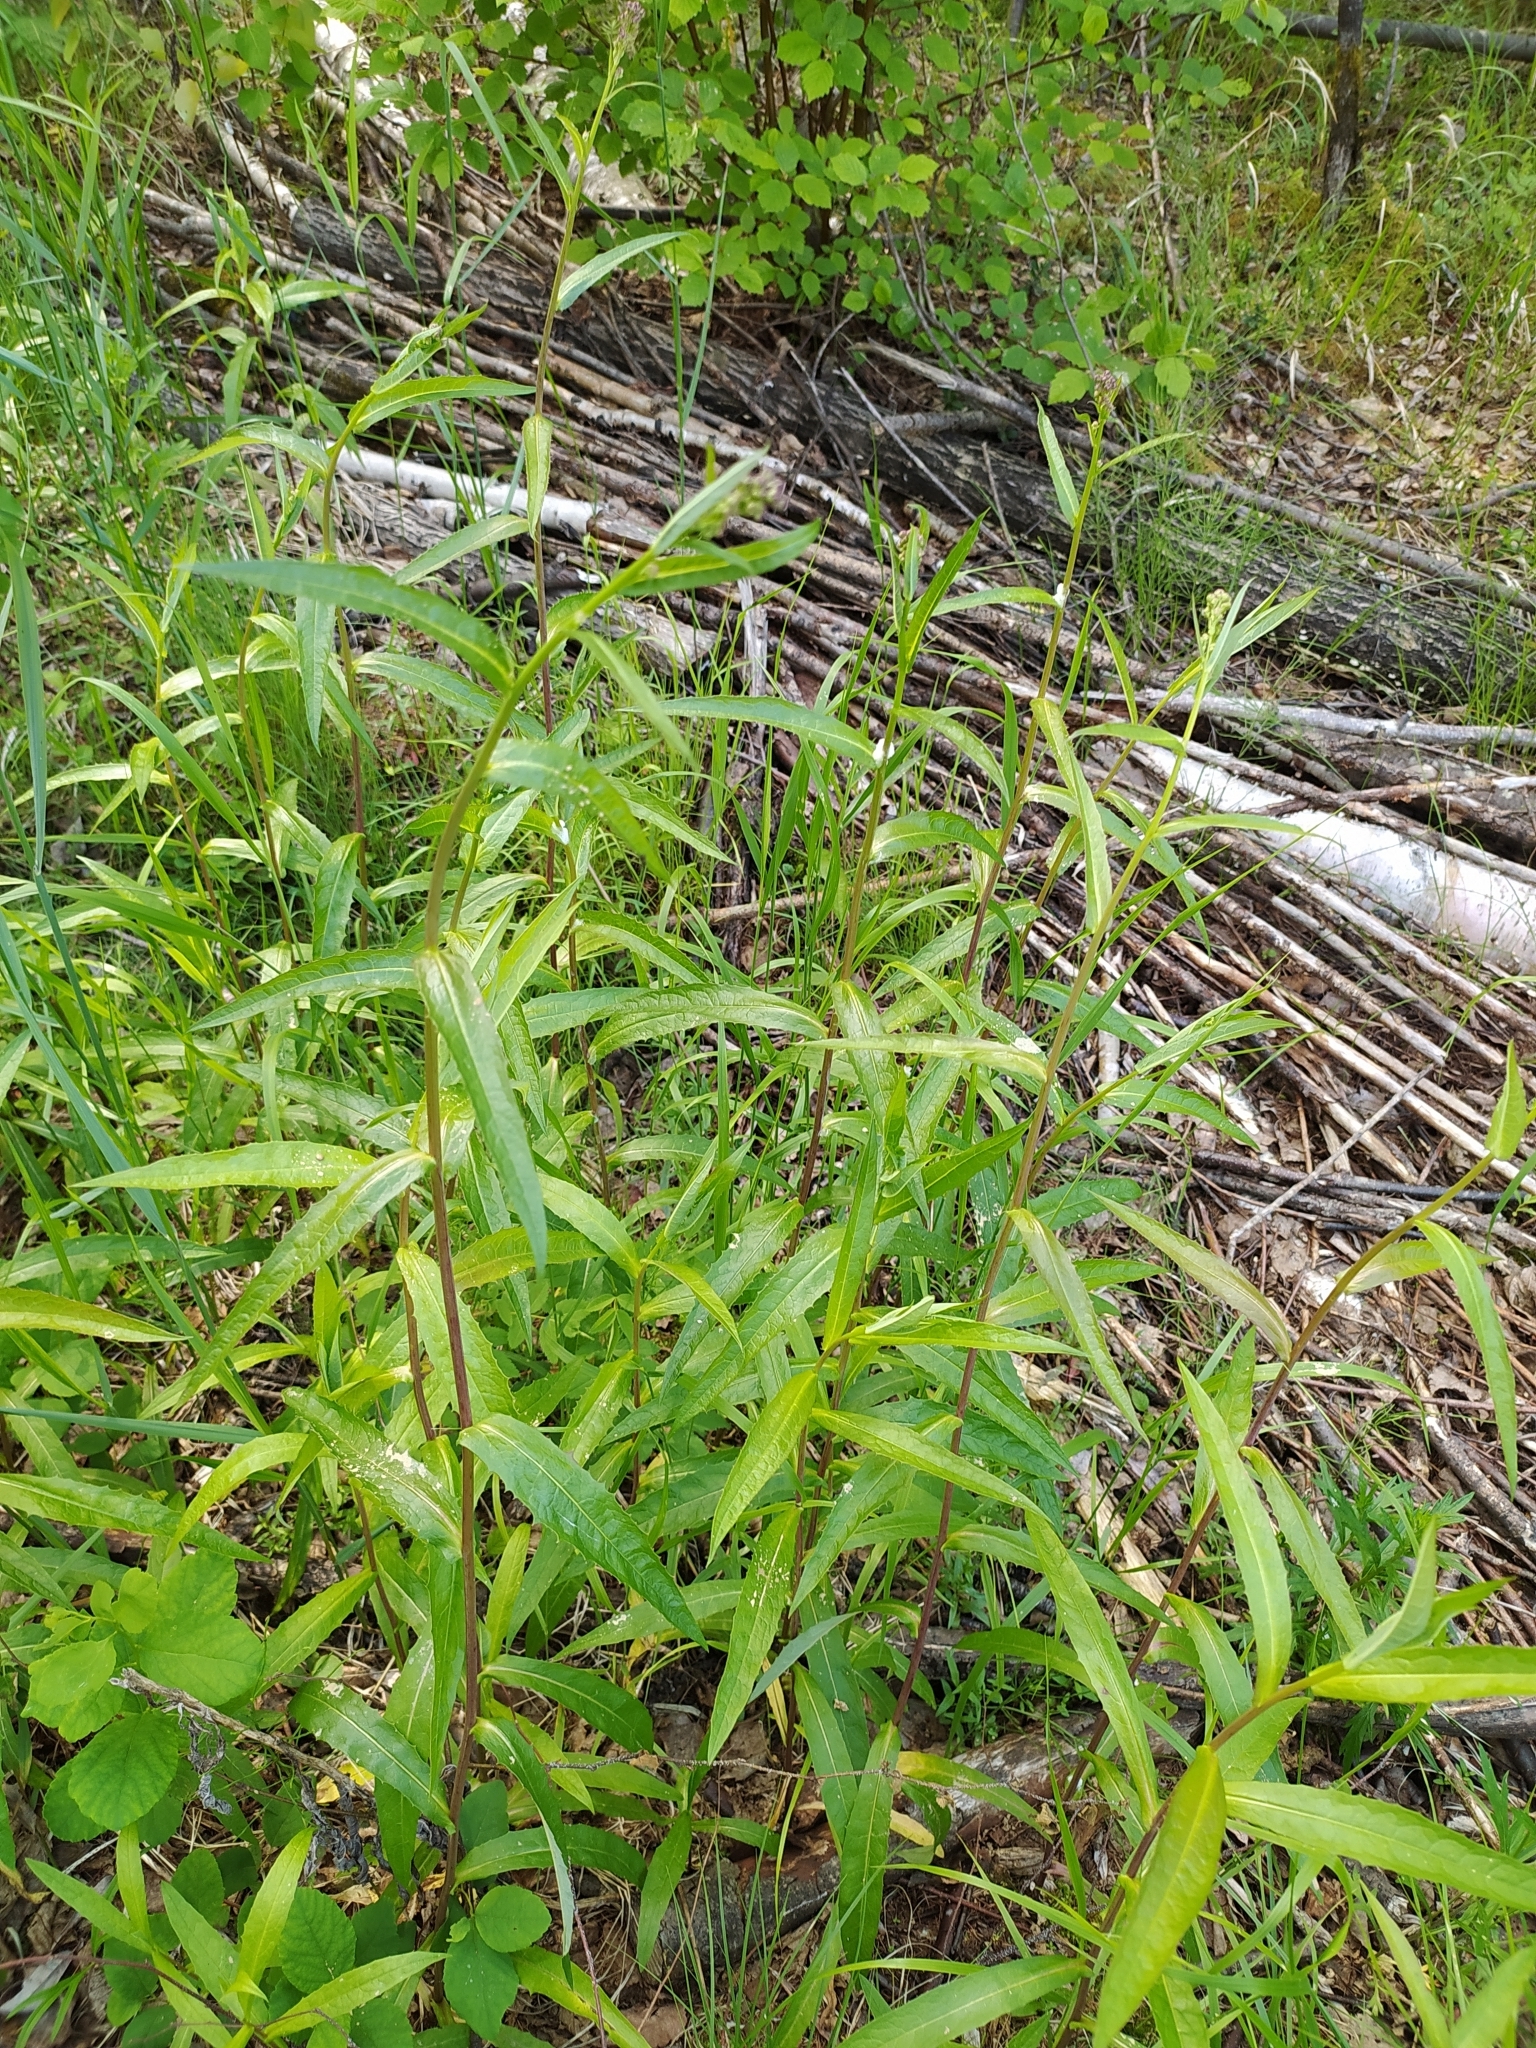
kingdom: Plantae
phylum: Tracheophyta
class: Magnoliopsida
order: Asterales
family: Asteraceae
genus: Solidago
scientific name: Solidago canadensis
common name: Canada goldenrod
